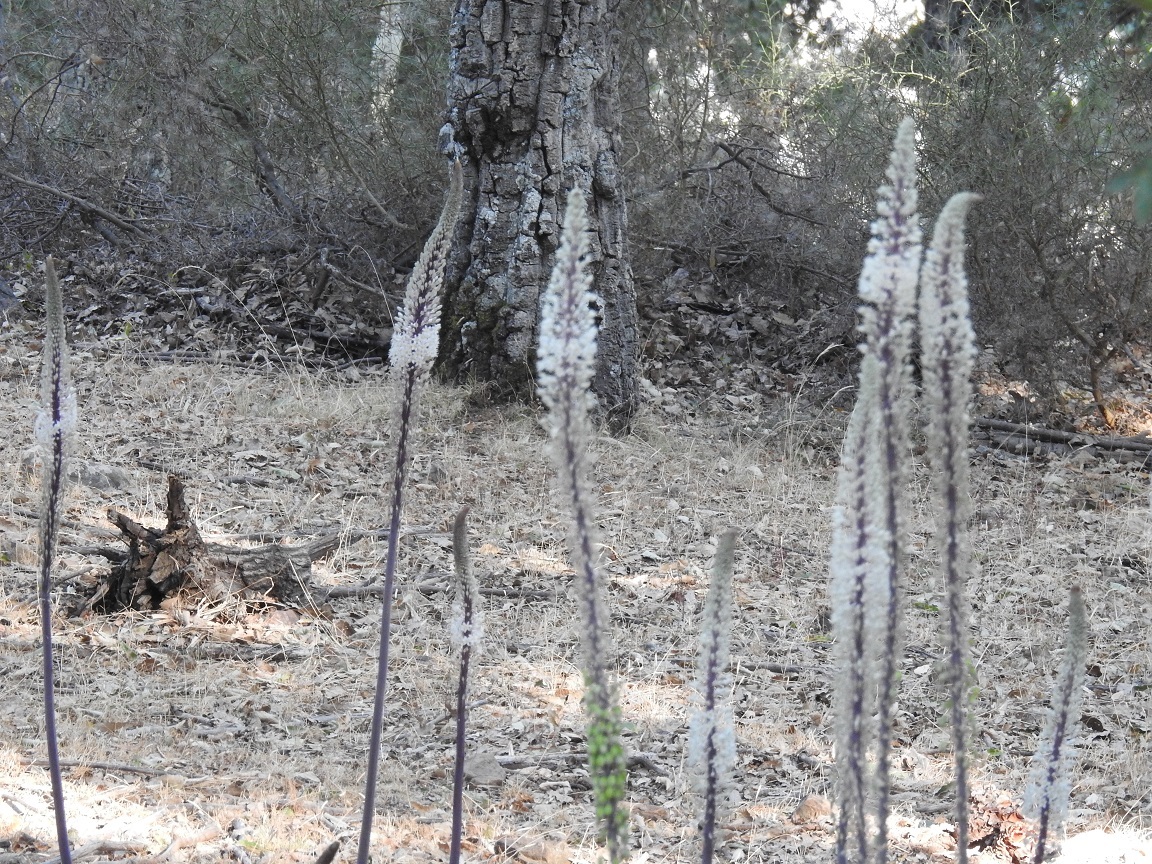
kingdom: Plantae
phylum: Tracheophyta
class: Liliopsida
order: Asparagales
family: Asparagaceae
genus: Drimia
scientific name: Drimia numidica
